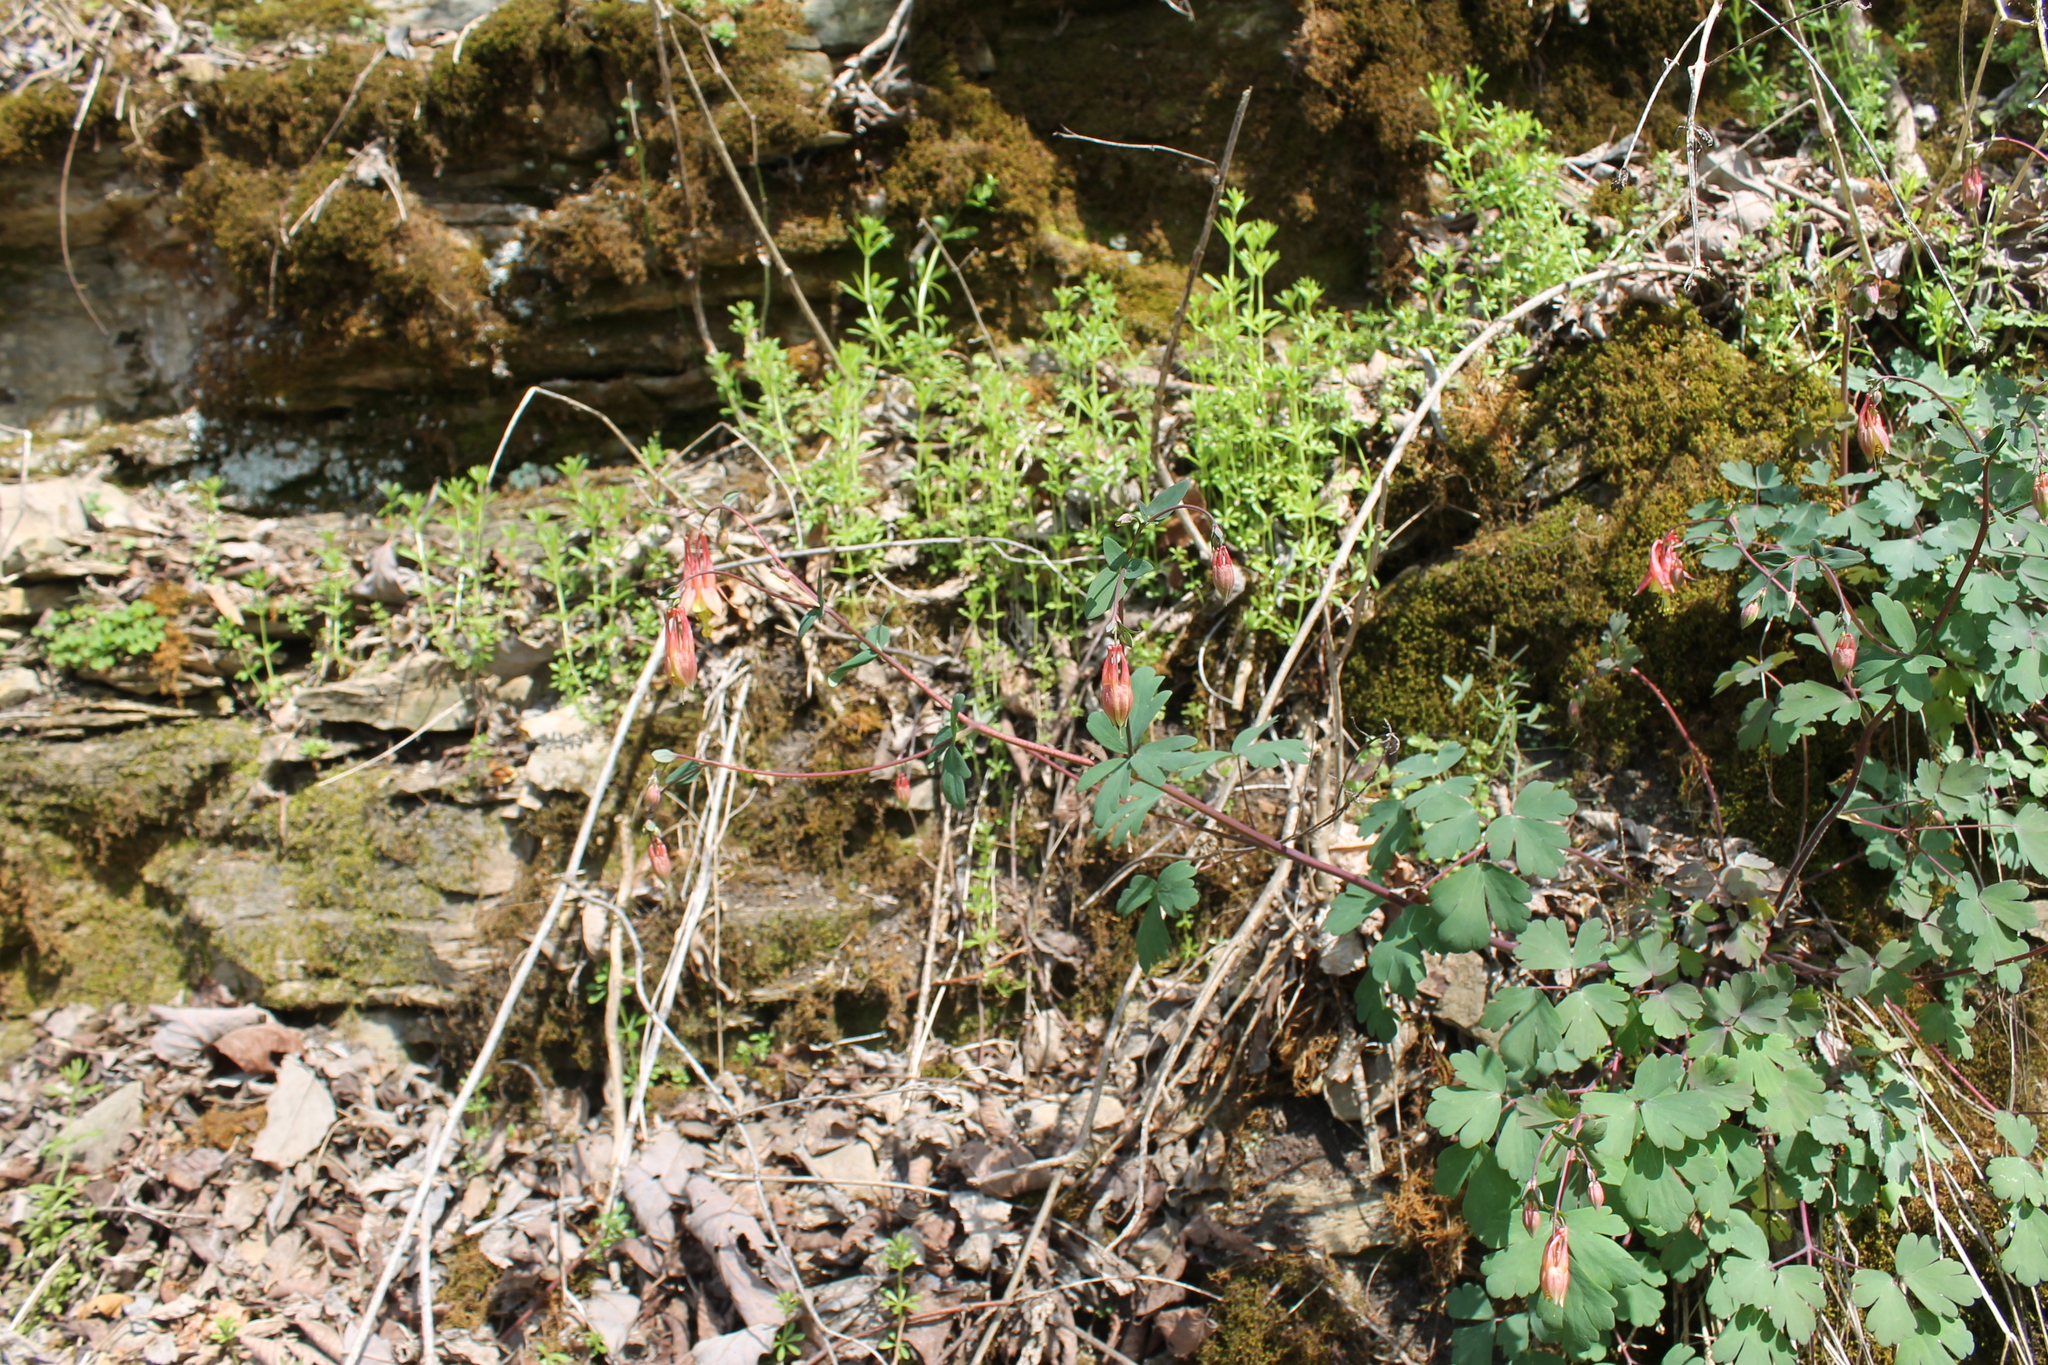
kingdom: Plantae
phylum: Tracheophyta
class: Magnoliopsida
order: Ranunculales
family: Ranunculaceae
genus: Aquilegia
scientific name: Aquilegia canadensis
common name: American columbine
